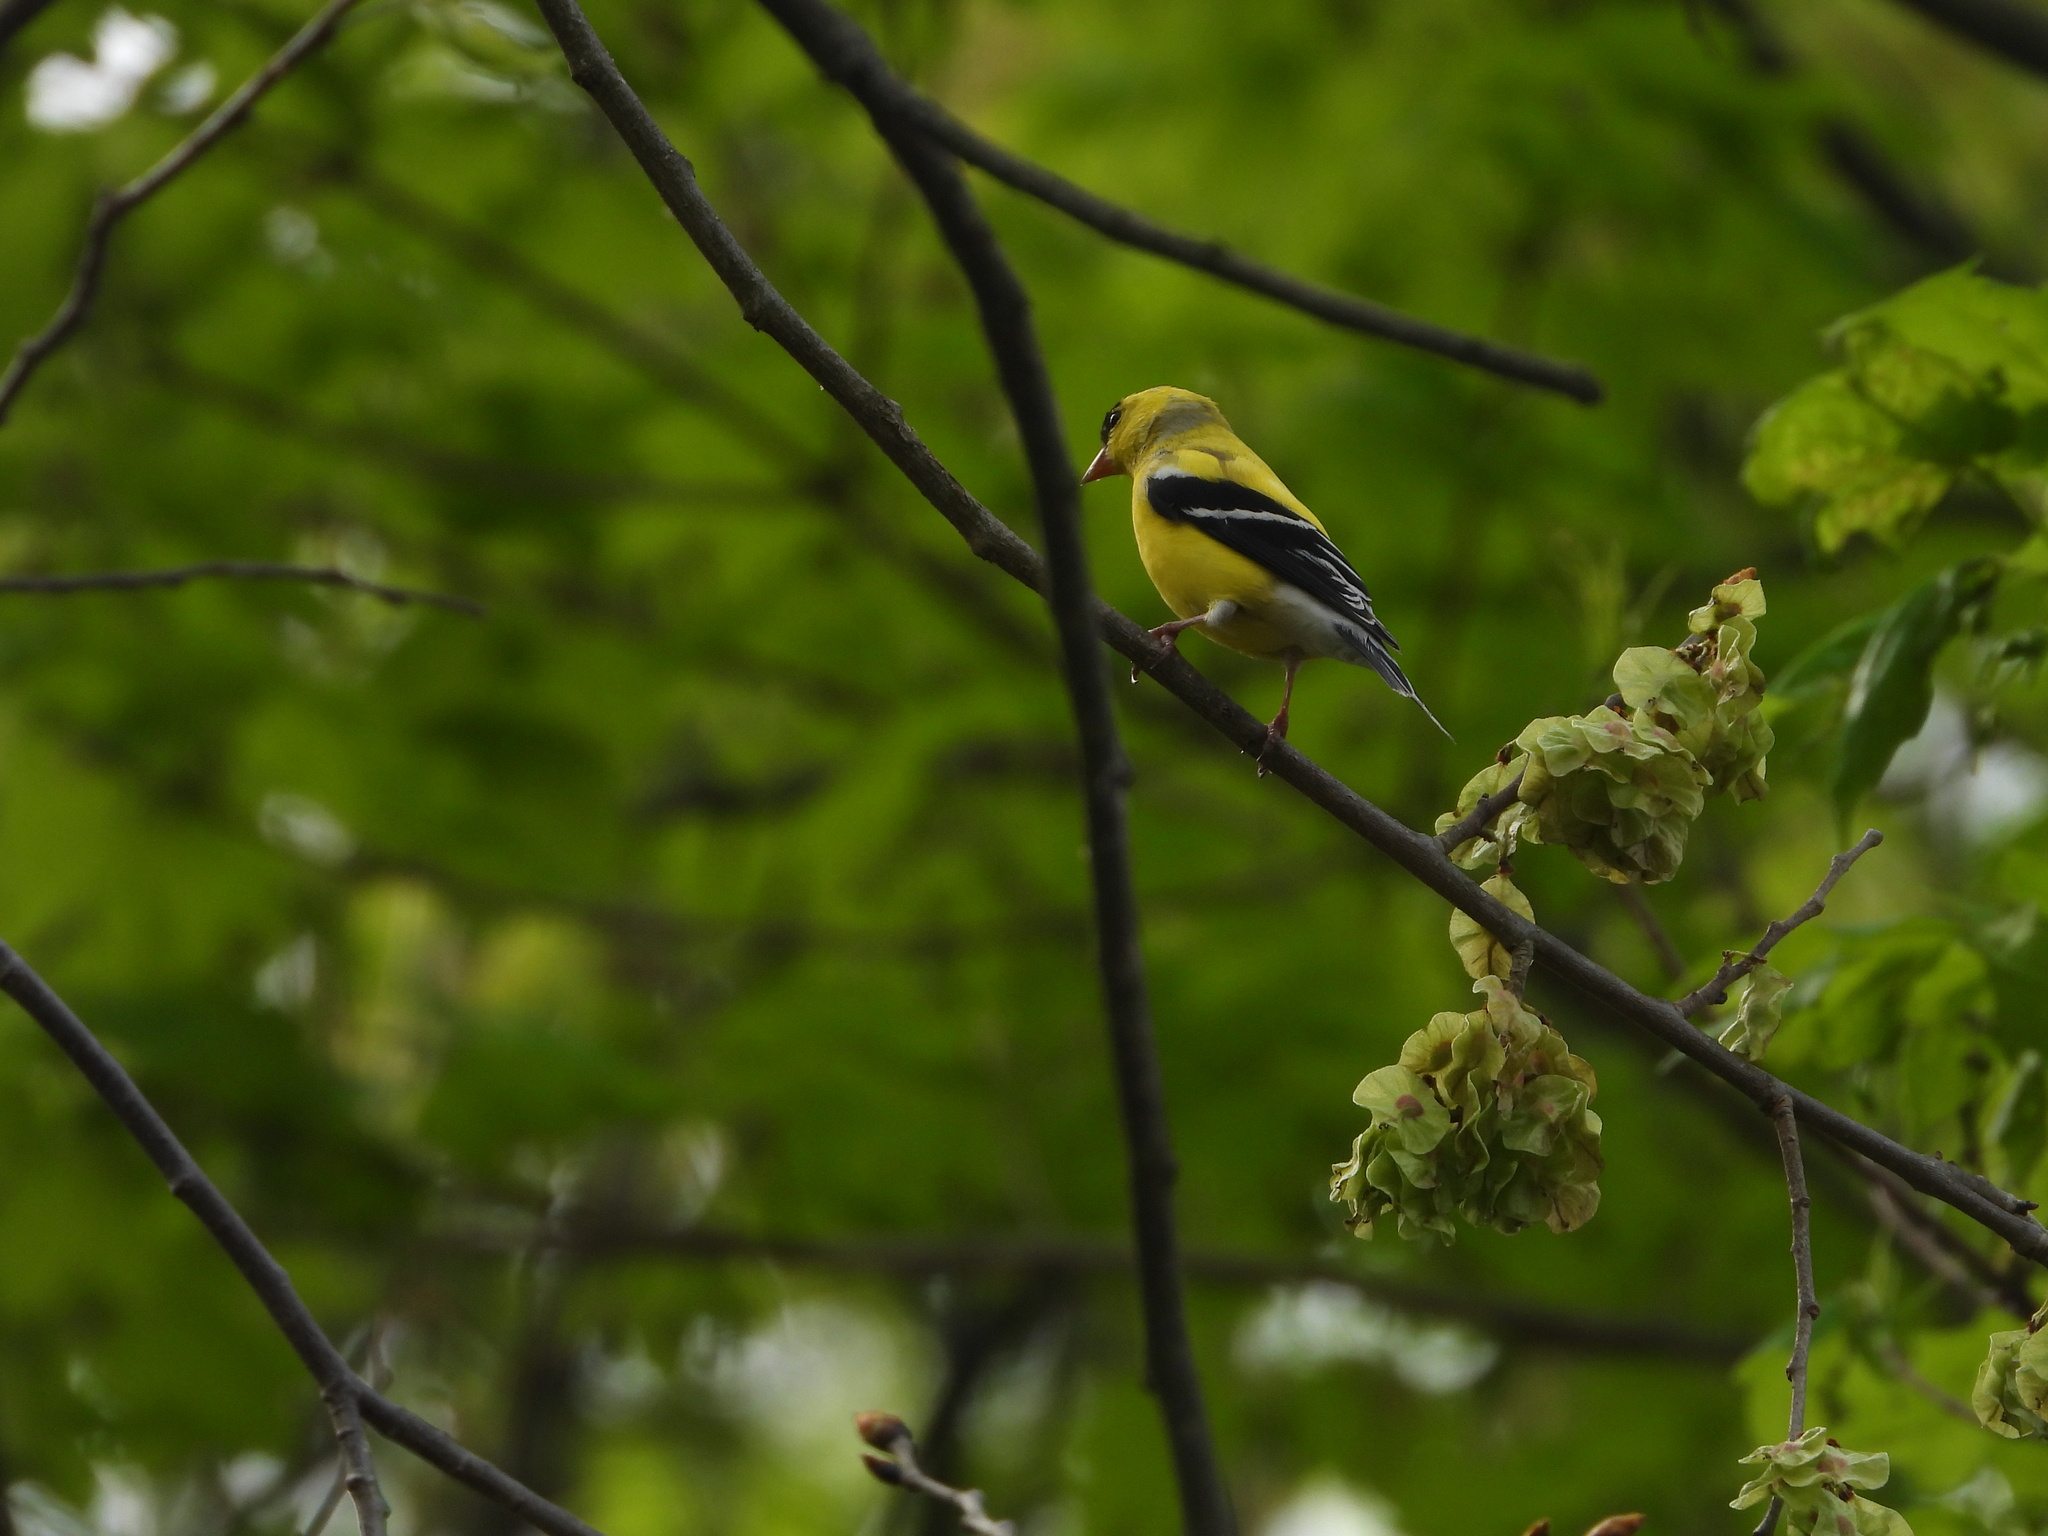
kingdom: Animalia
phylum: Chordata
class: Aves
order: Passeriformes
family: Fringillidae
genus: Spinus
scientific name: Spinus tristis
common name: American goldfinch
